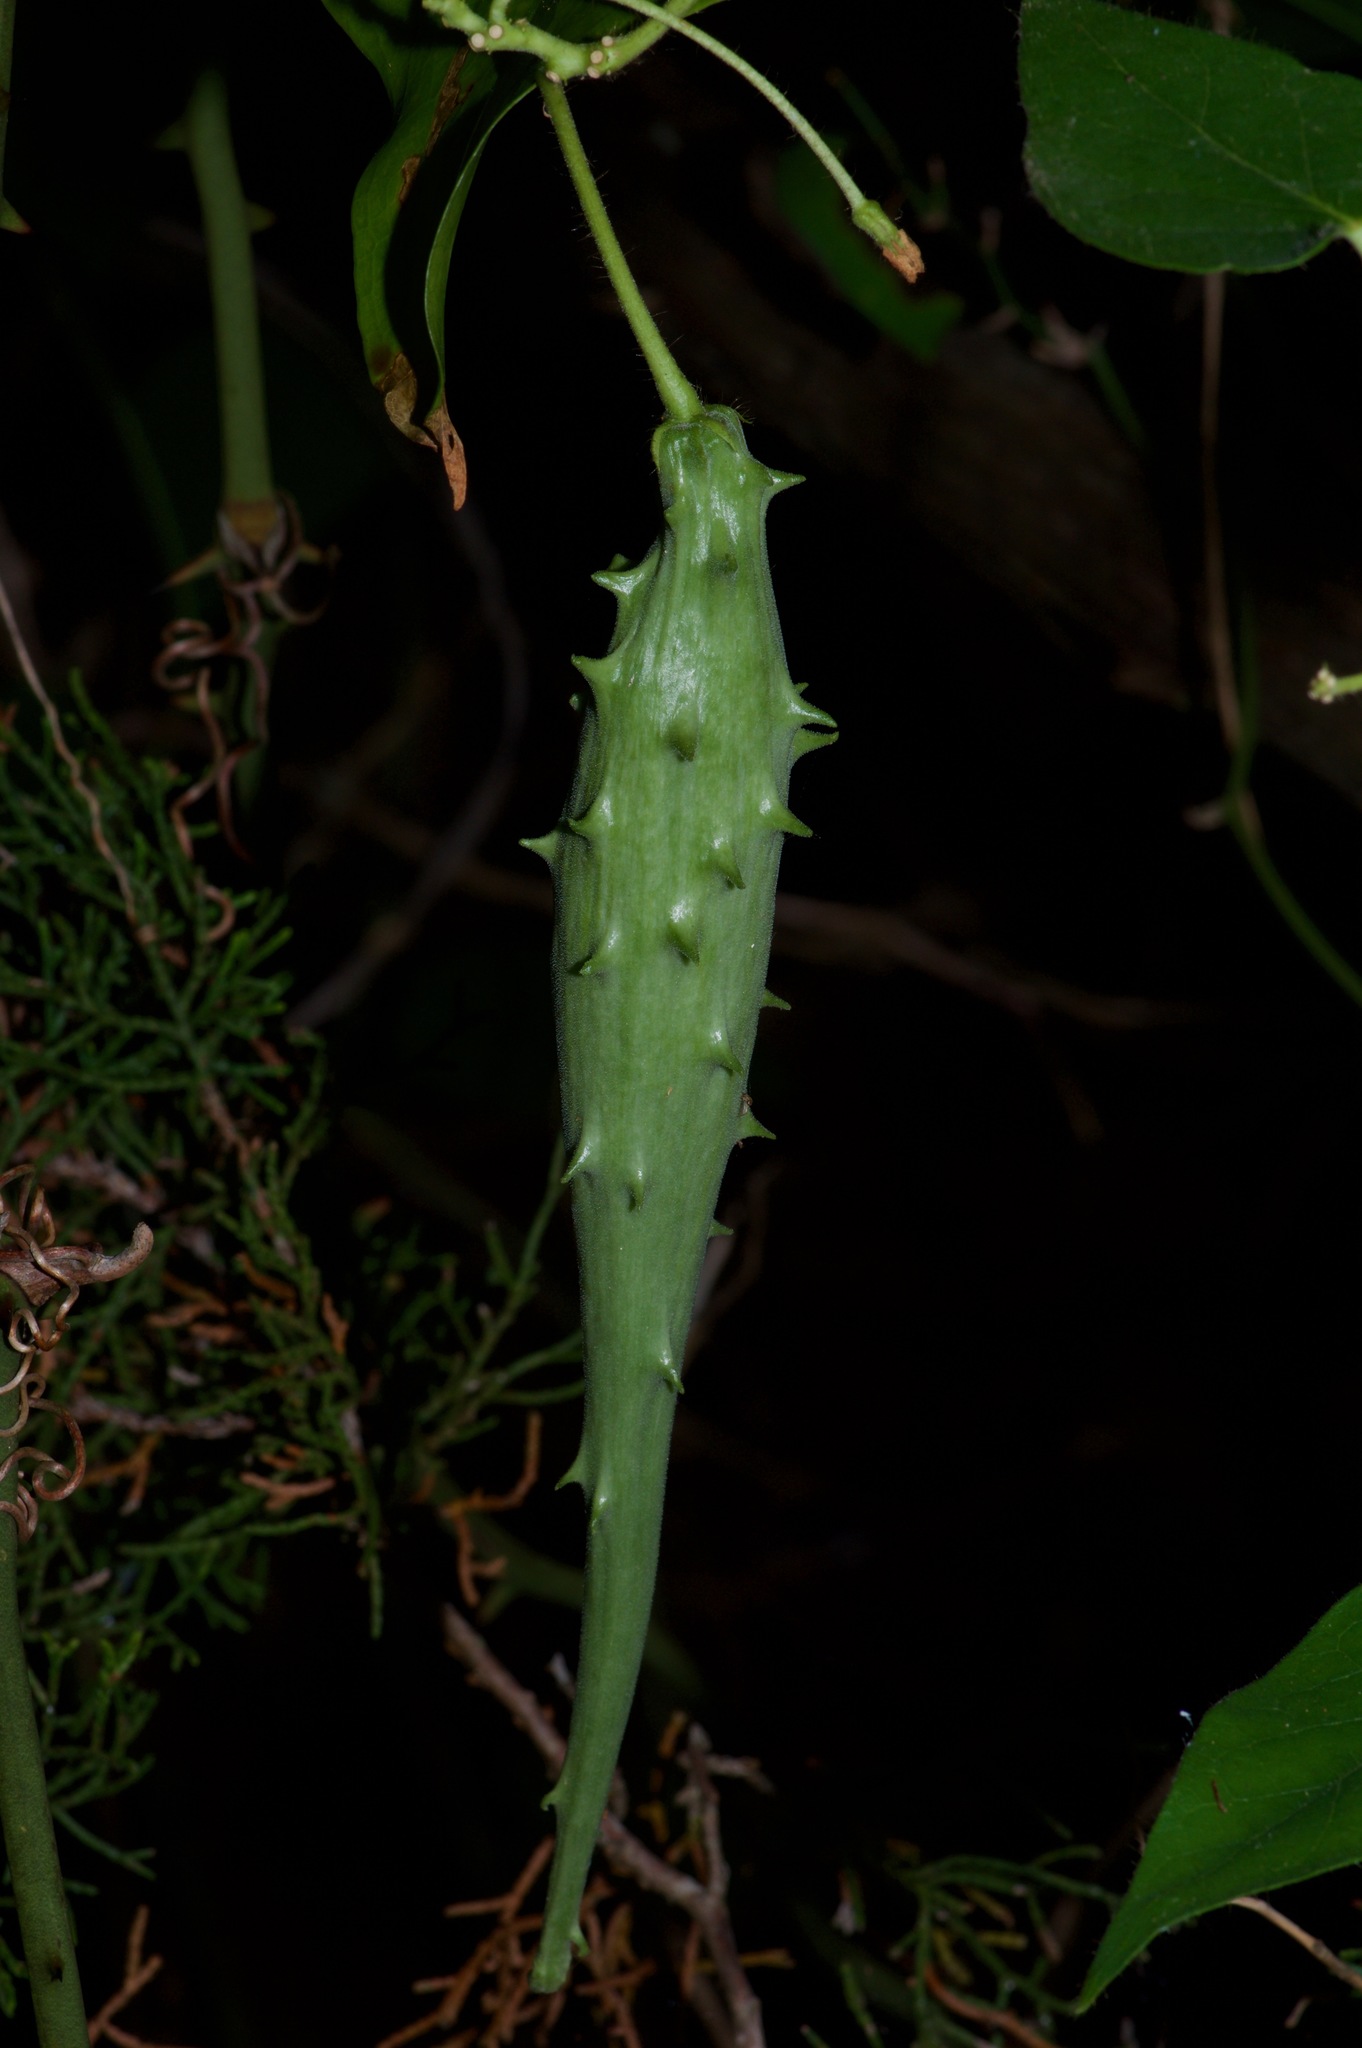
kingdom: Plantae
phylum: Tracheophyta
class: Magnoliopsida
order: Gentianales
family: Apocynaceae
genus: Dictyanthus
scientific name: Dictyanthus reticulatus
